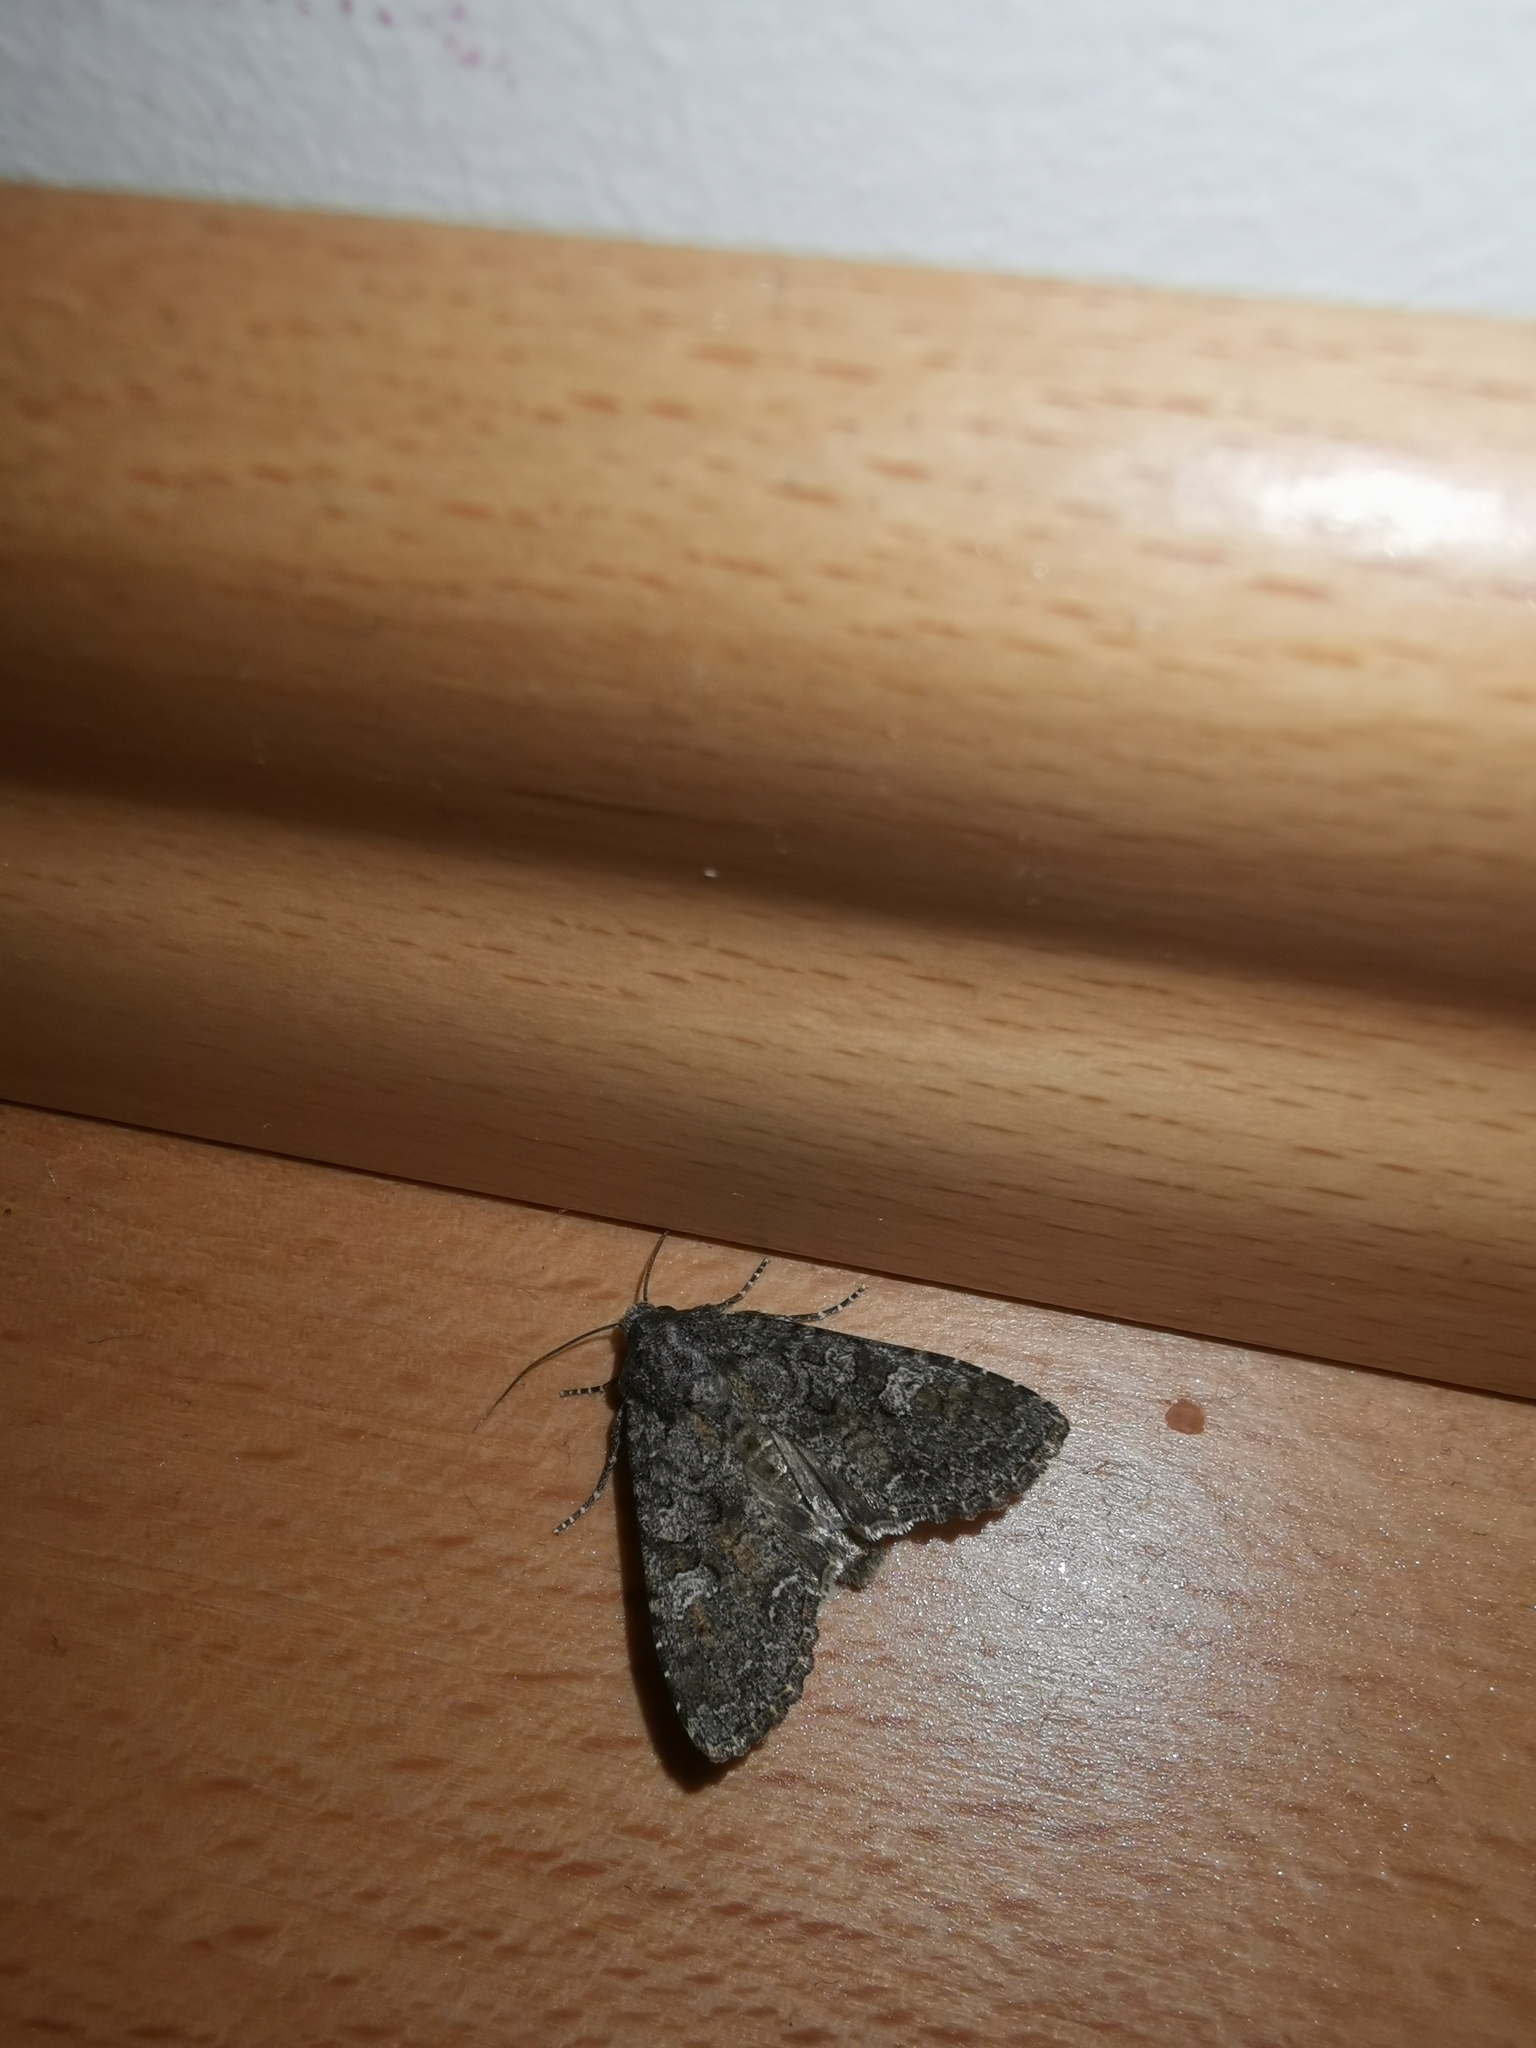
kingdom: Animalia
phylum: Arthropoda
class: Insecta
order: Lepidoptera
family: Noctuidae
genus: Mamestra
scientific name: Mamestra brassicae
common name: Cabbage moth
